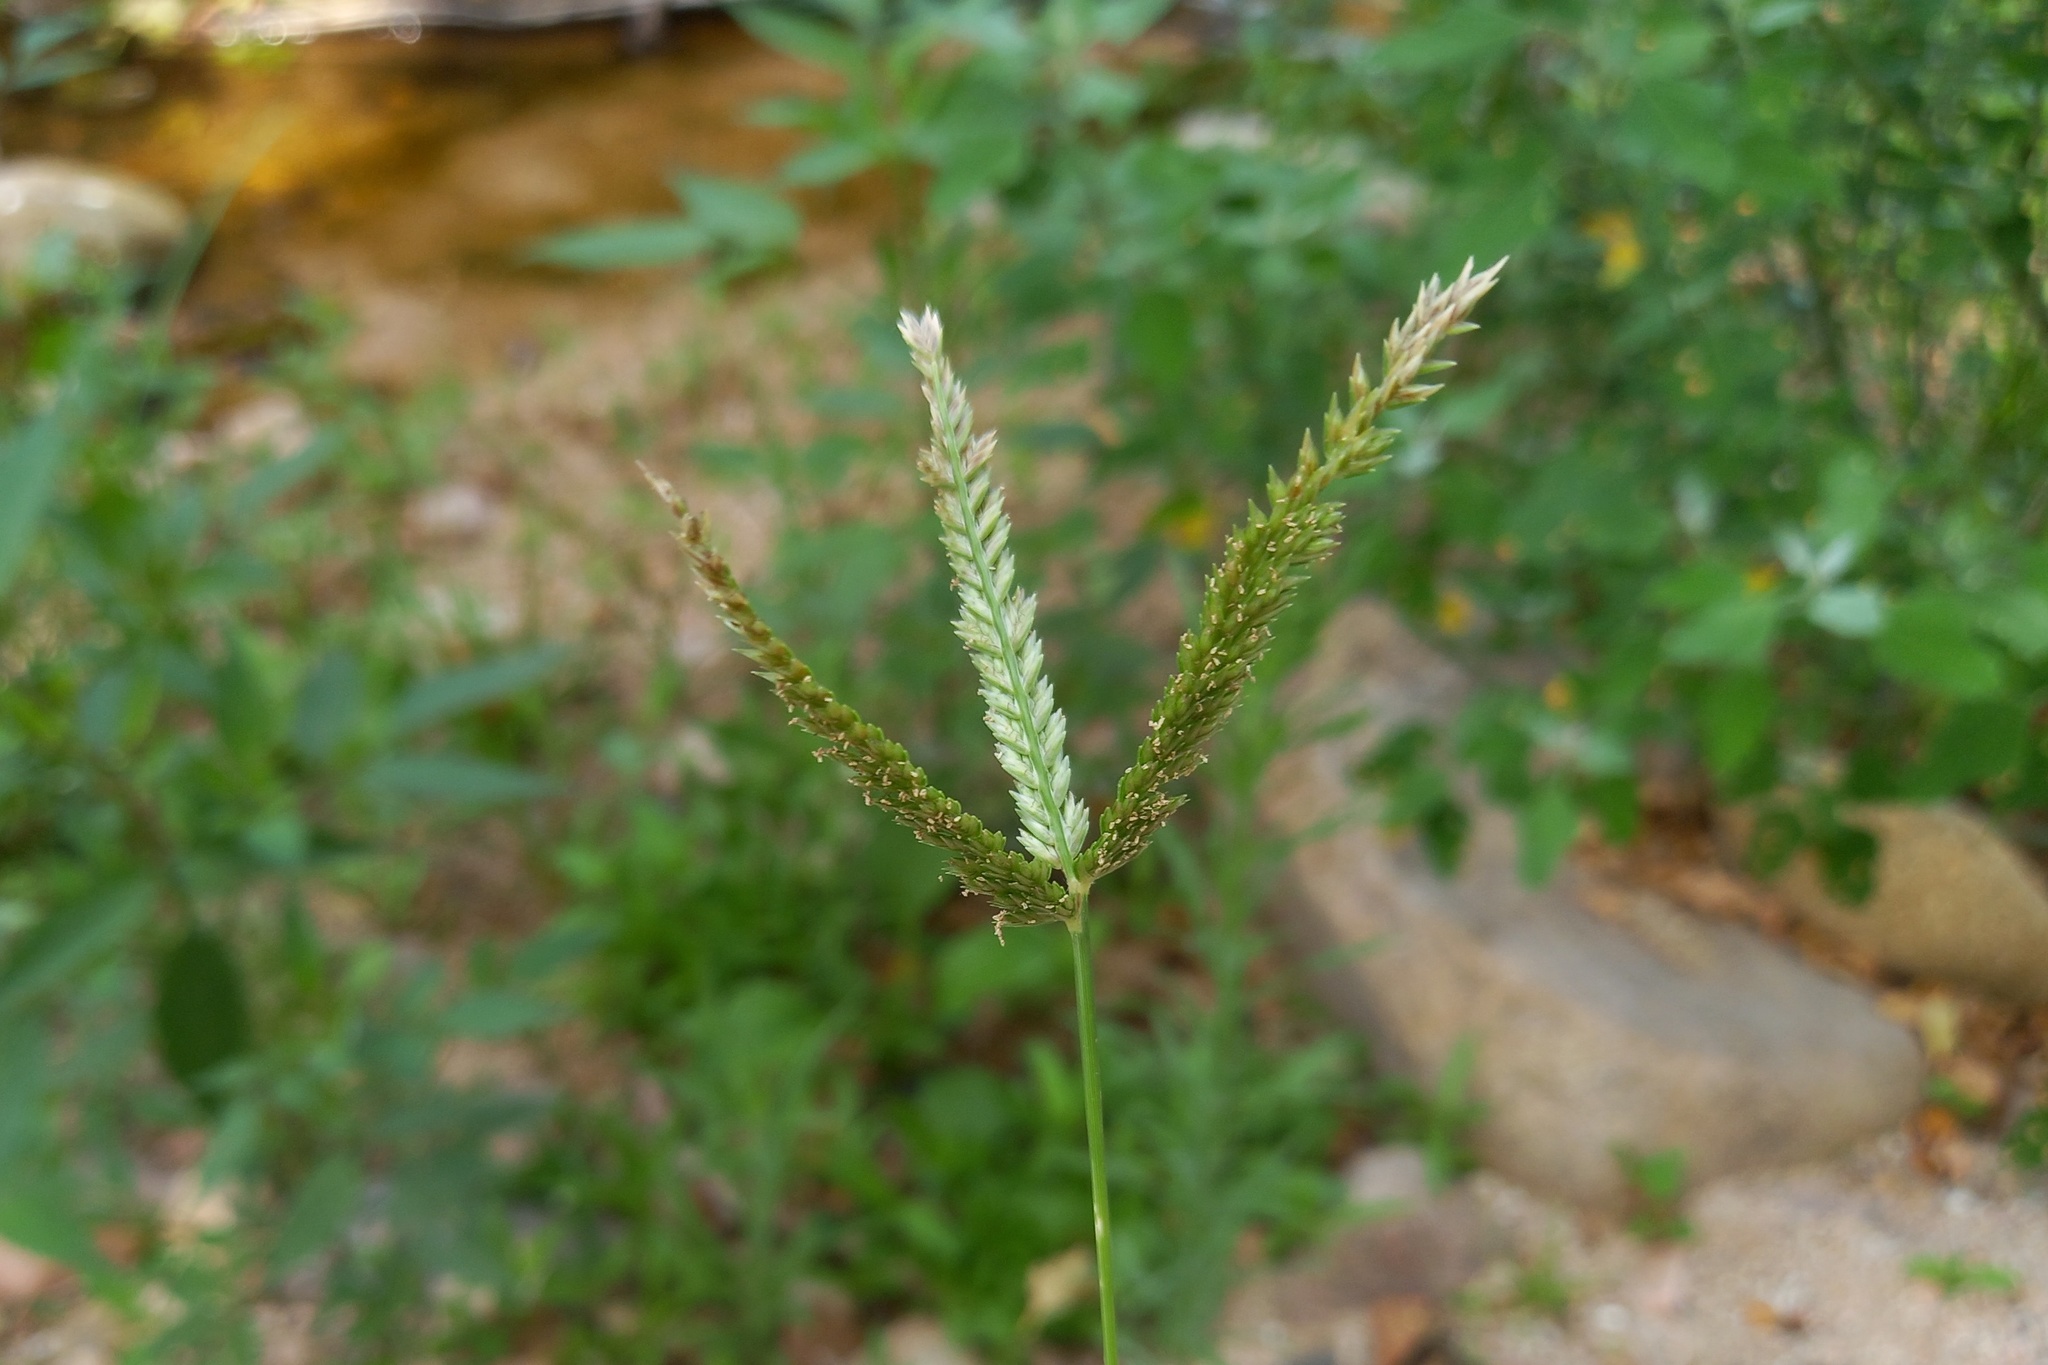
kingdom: Plantae
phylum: Tracheophyta
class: Liliopsida
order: Poales
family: Poaceae
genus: Eleusine
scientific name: Eleusine indica
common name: Yard-grass
